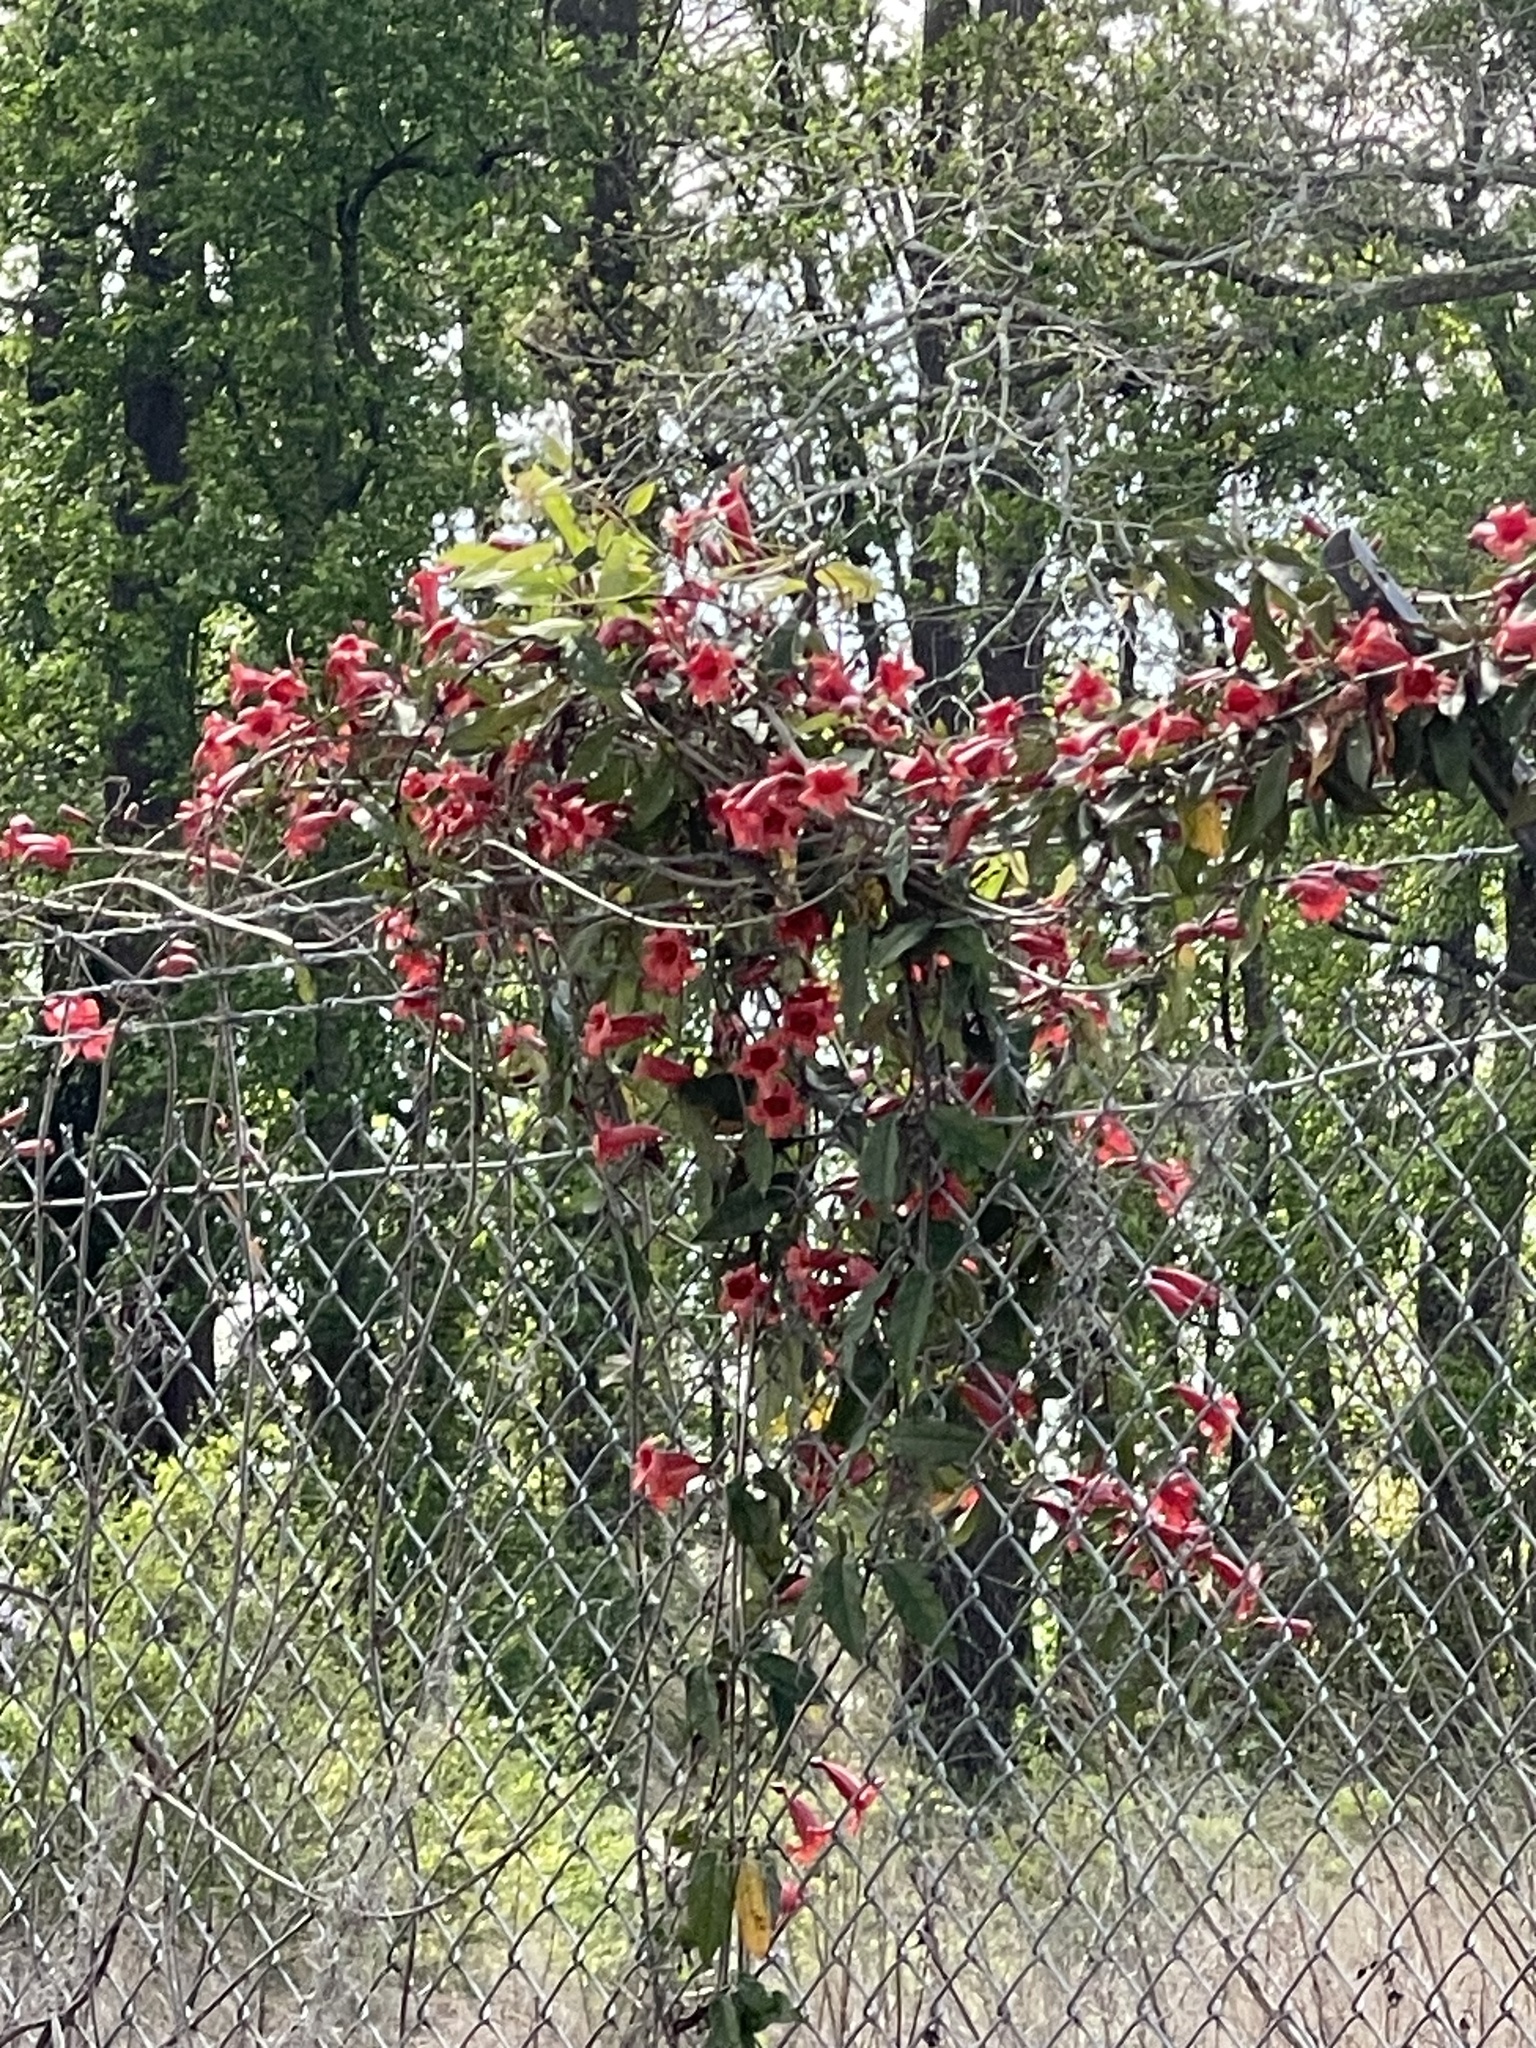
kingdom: Plantae
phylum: Tracheophyta
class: Magnoliopsida
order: Lamiales
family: Bignoniaceae
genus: Bignonia
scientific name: Bignonia capreolata
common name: Crossvine
